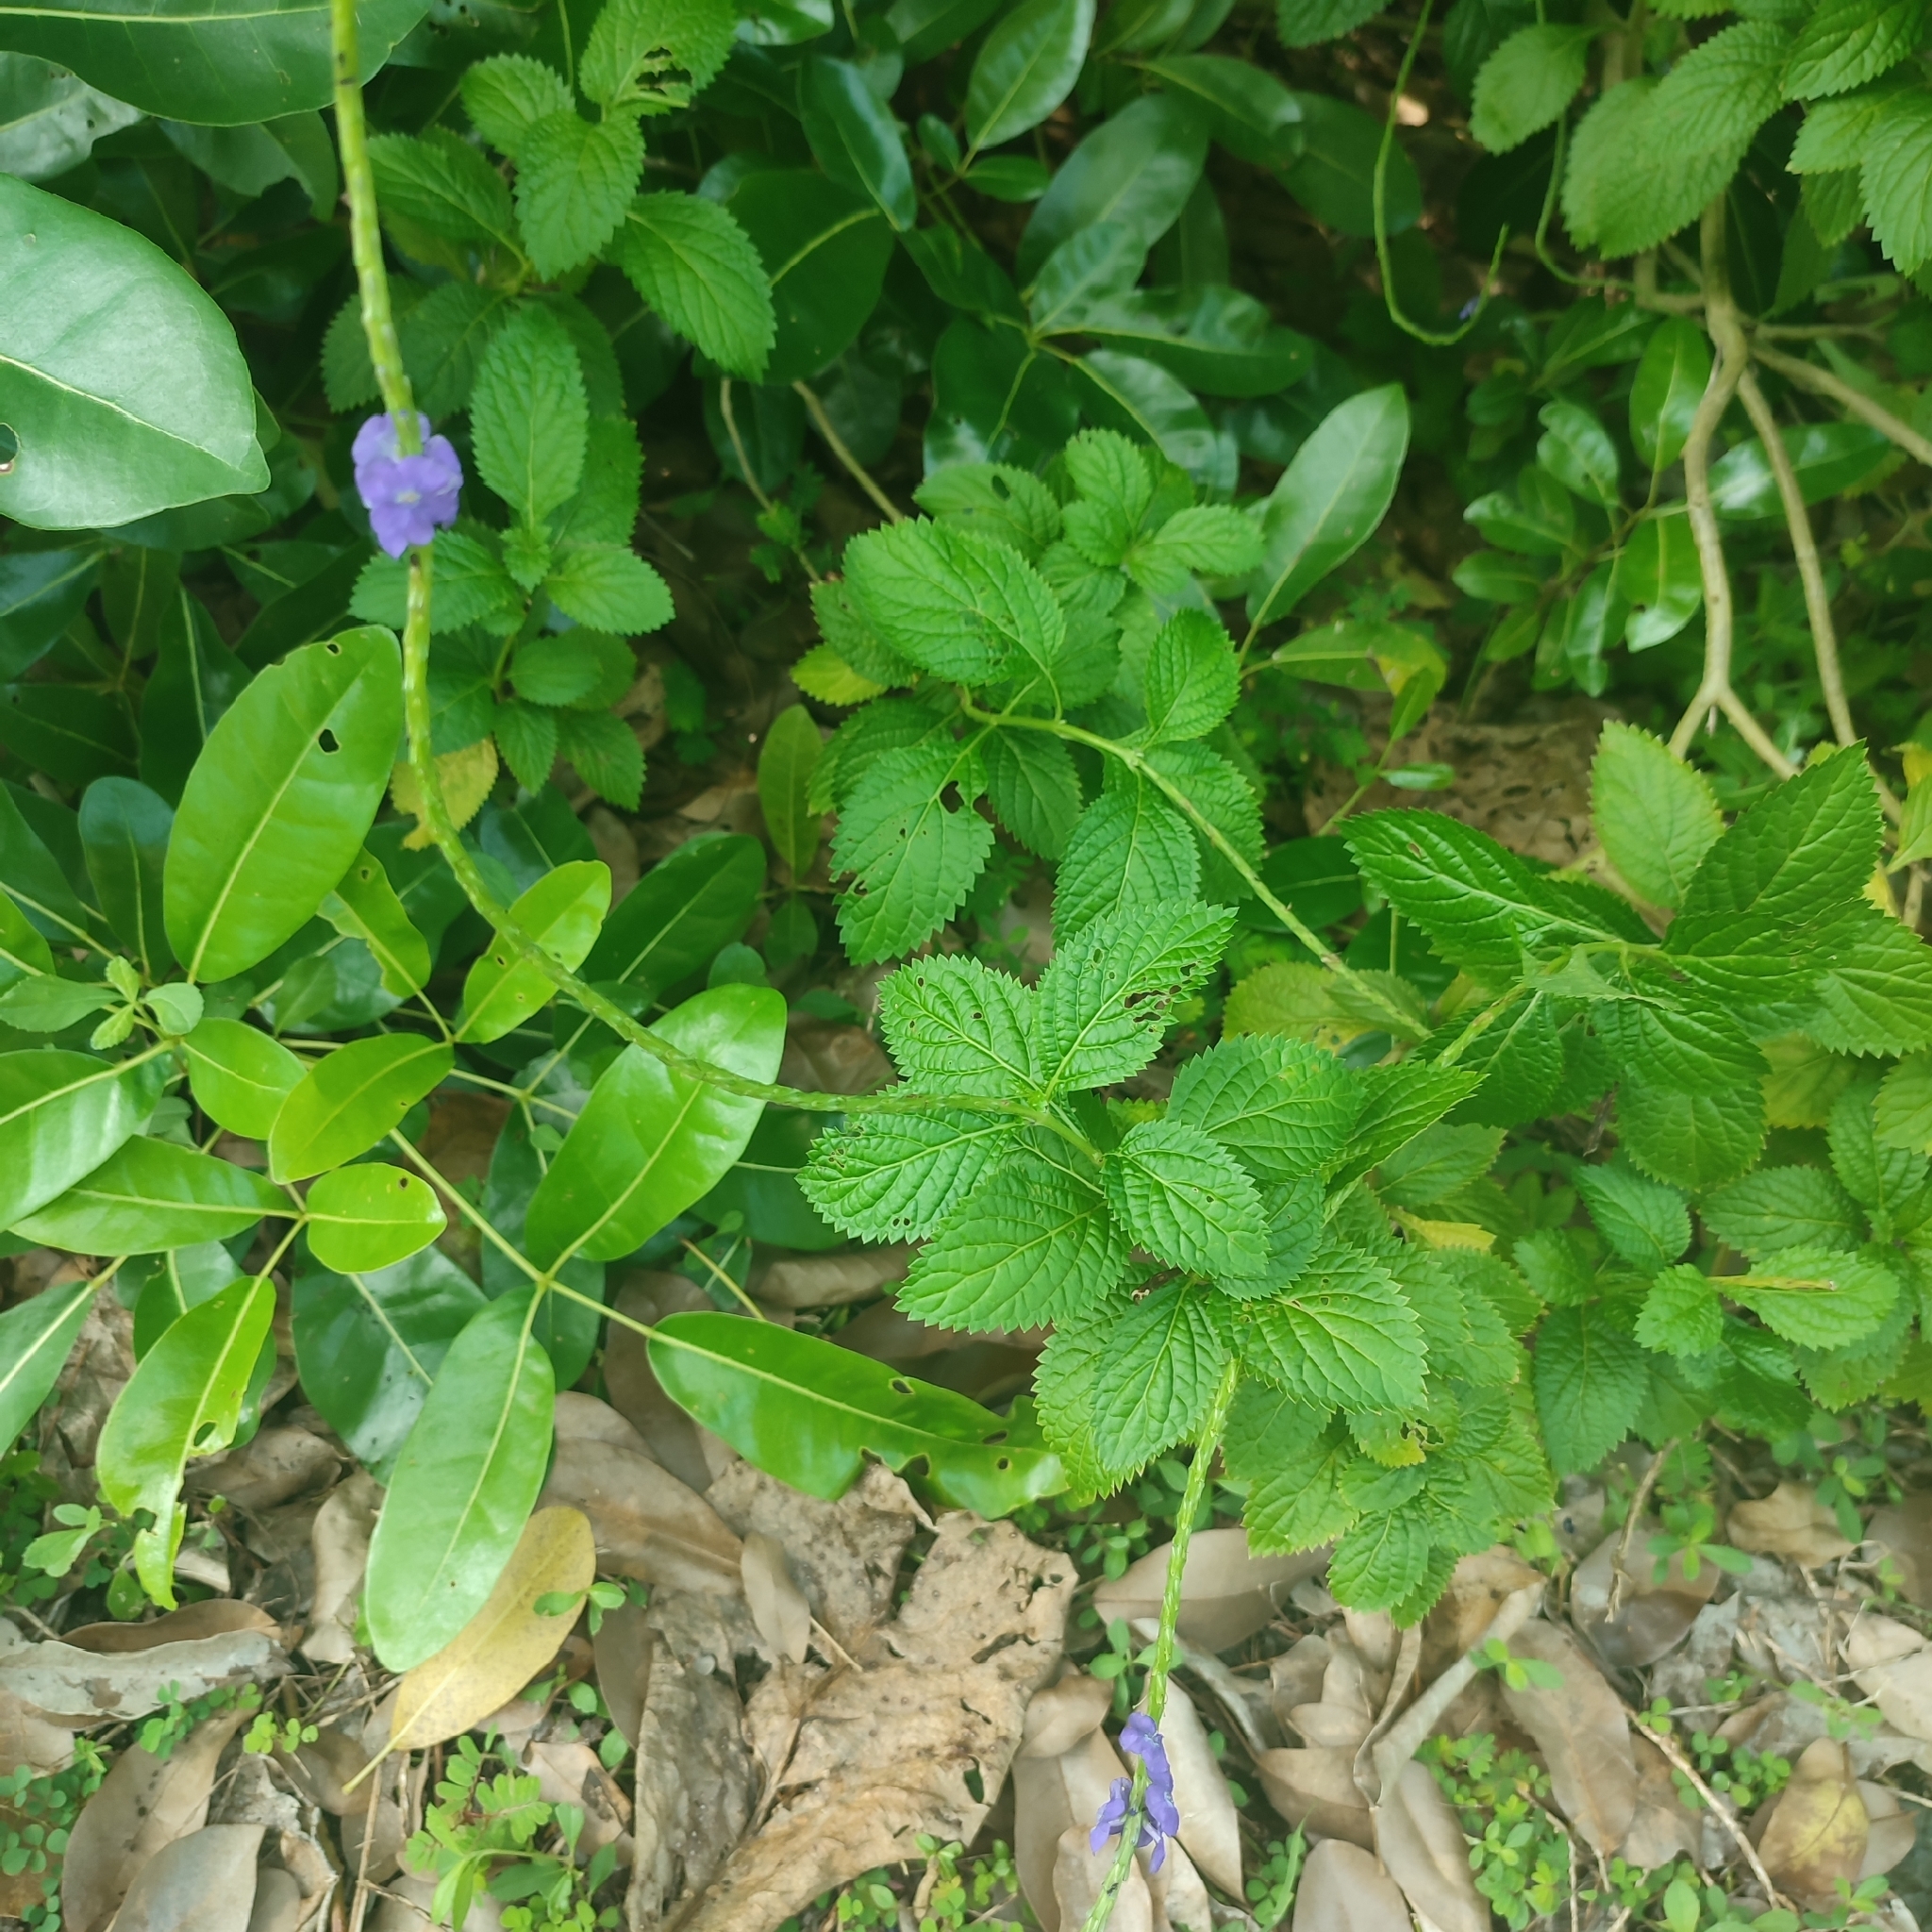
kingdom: Plantae
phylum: Tracheophyta
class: Magnoliopsida
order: Lamiales
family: Verbenaceae
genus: Stachytarpheta
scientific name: Stachytarpheta urticifolia
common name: Nettleleaf velvetberry
